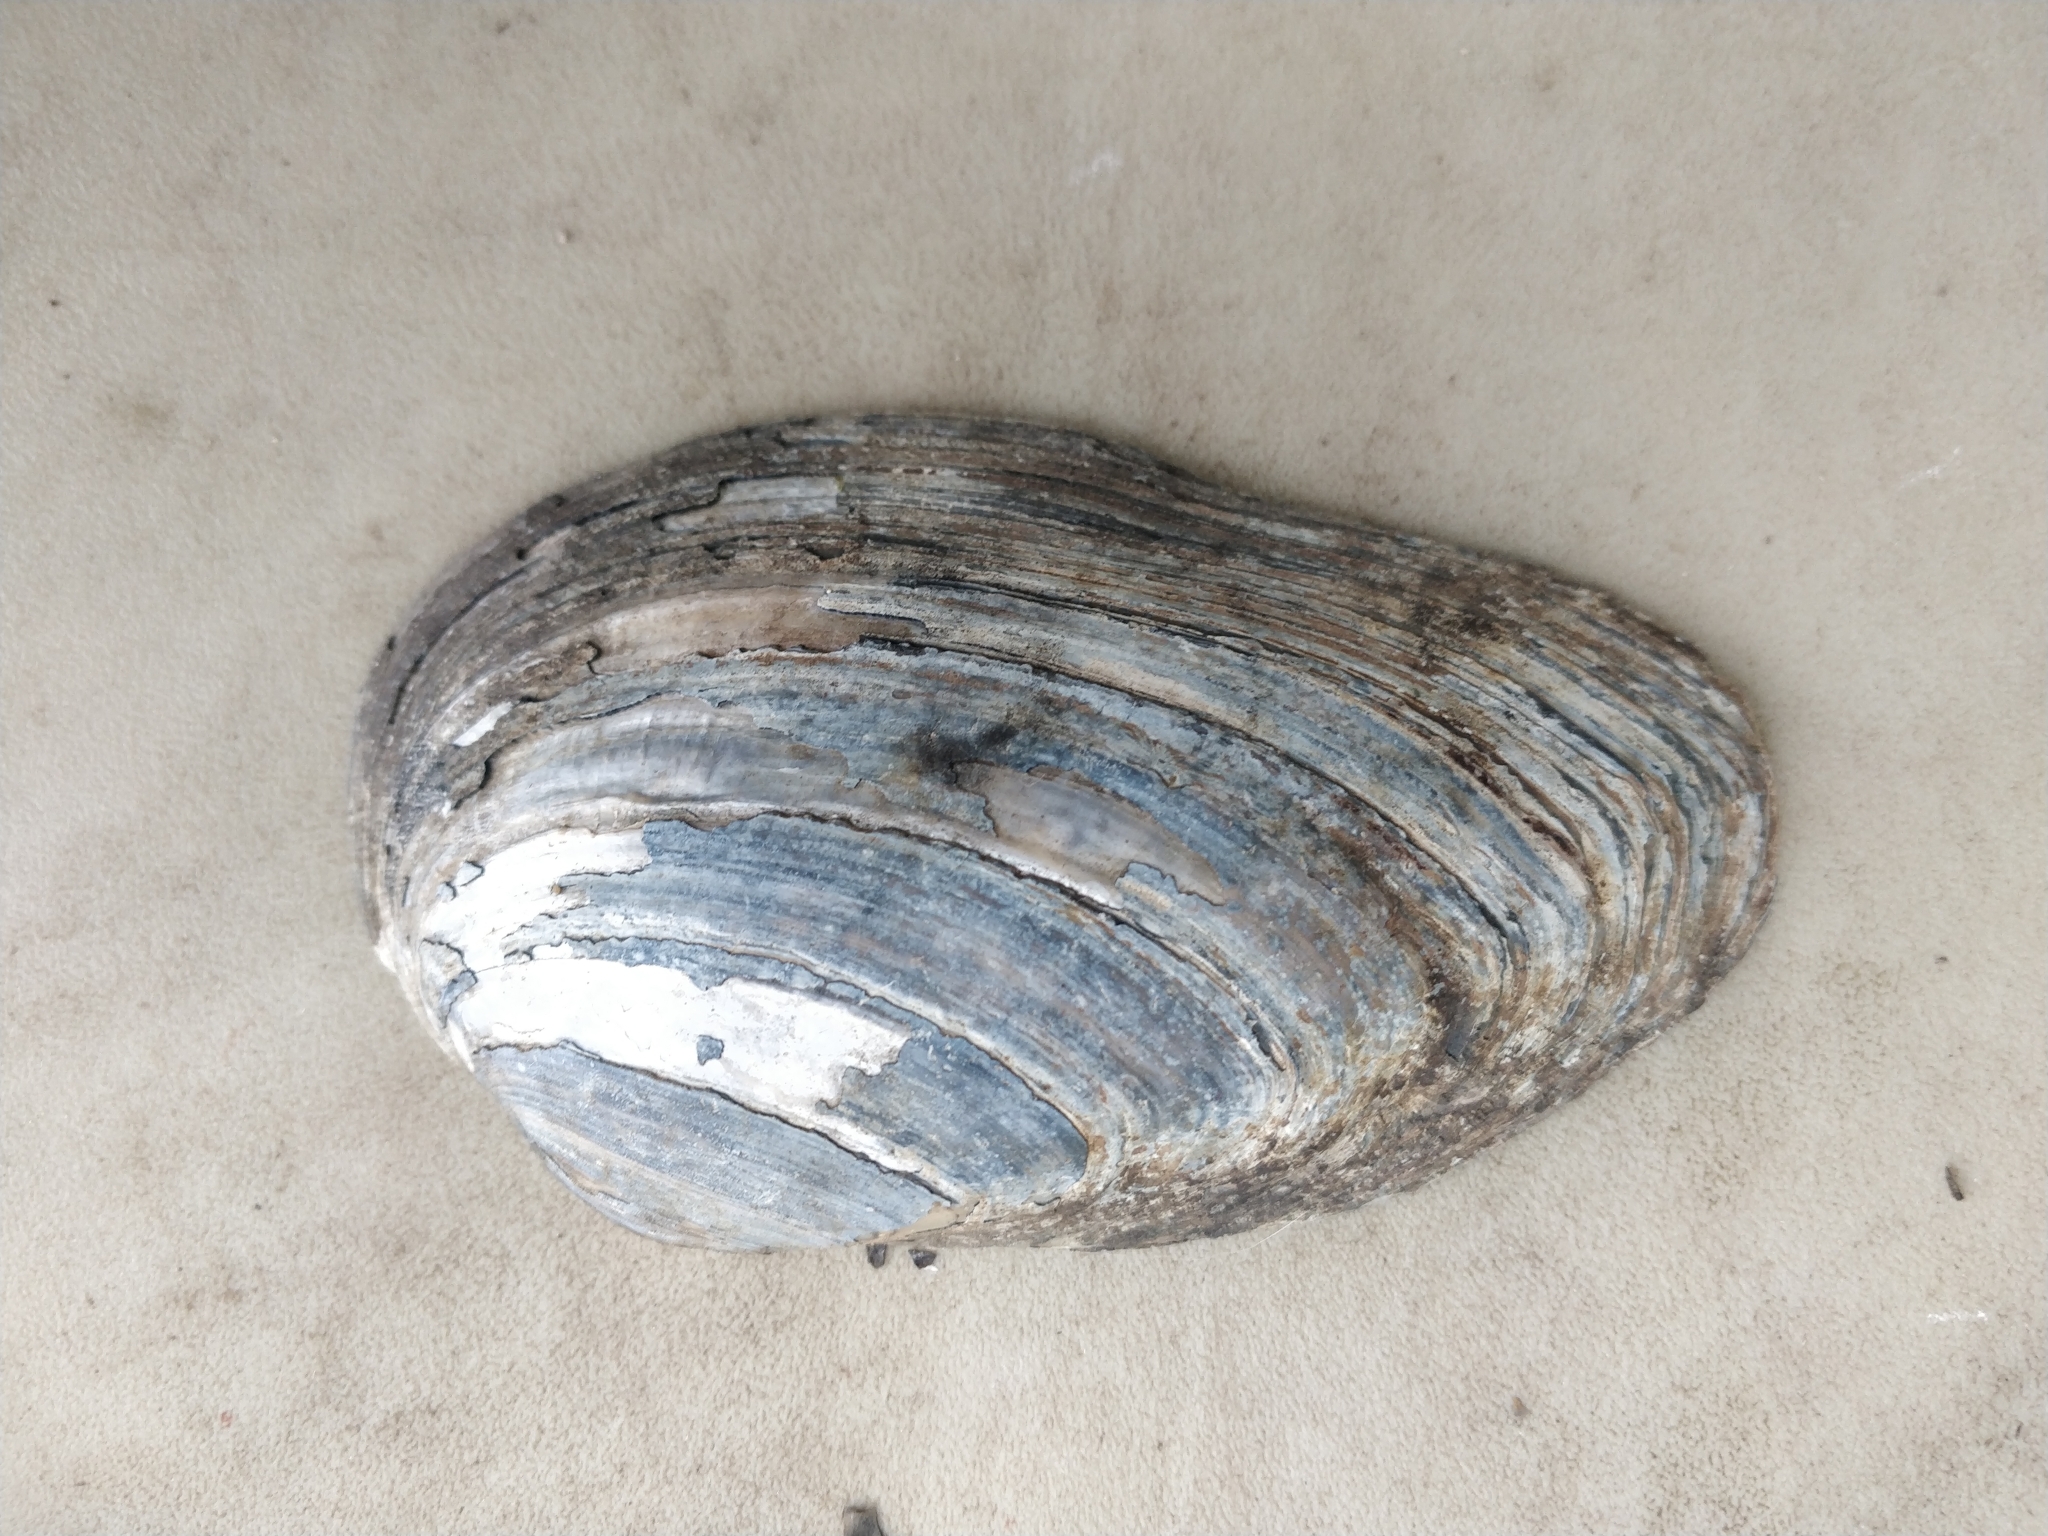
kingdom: Animalia
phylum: Mollusca
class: Bivalvia
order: Unionida
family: Unionidae
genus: Pyganodon
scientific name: Pyganodon grandis
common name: Giant floater
